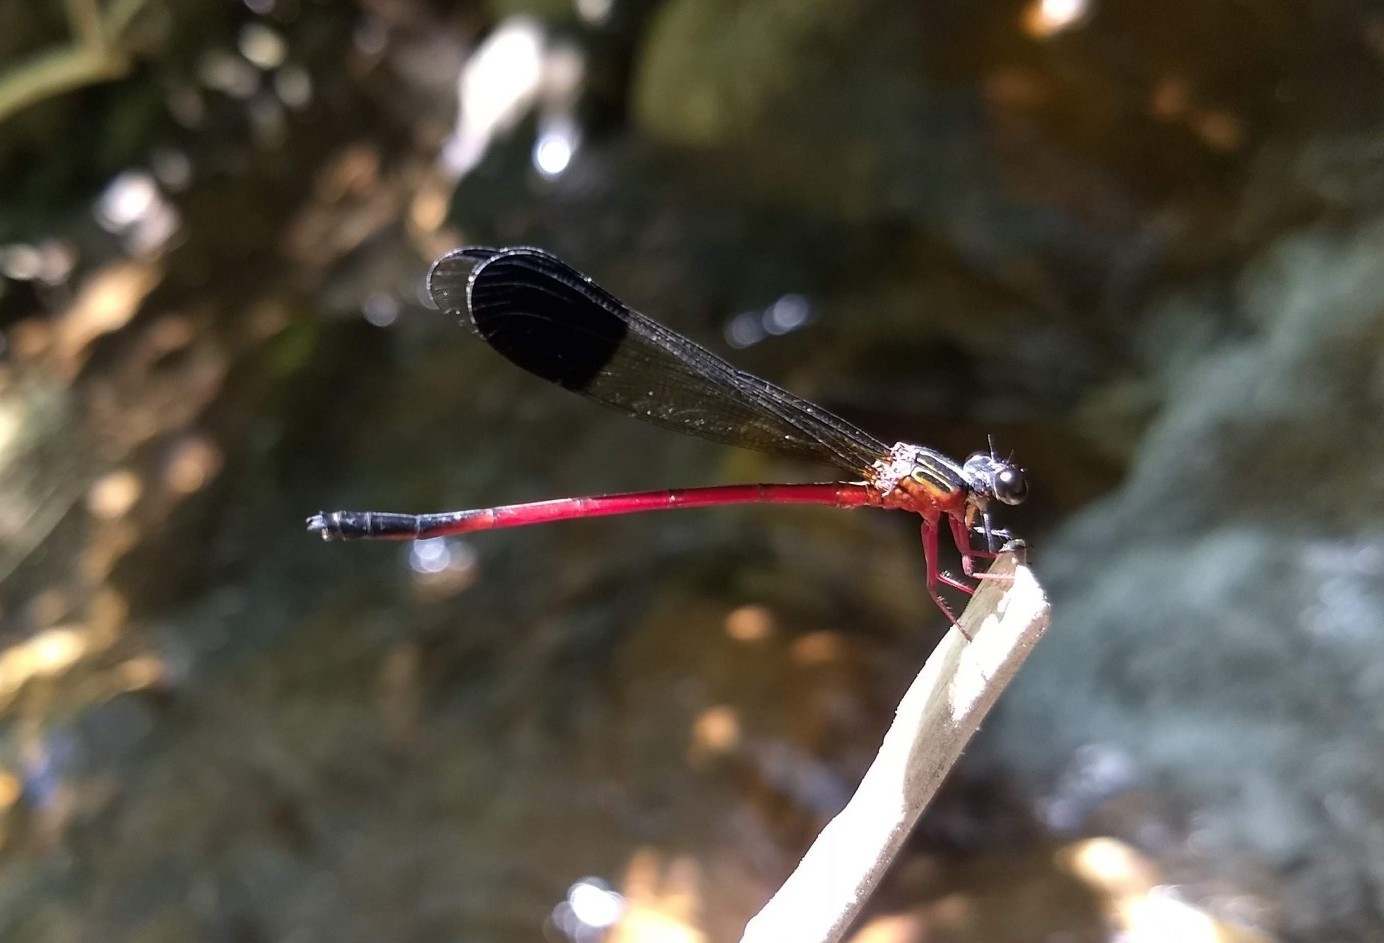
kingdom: Animalia
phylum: Arthropoda
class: Insecta
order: Odonata
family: Euphaeidae
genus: Euphaea
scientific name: Euphaea fraseri
